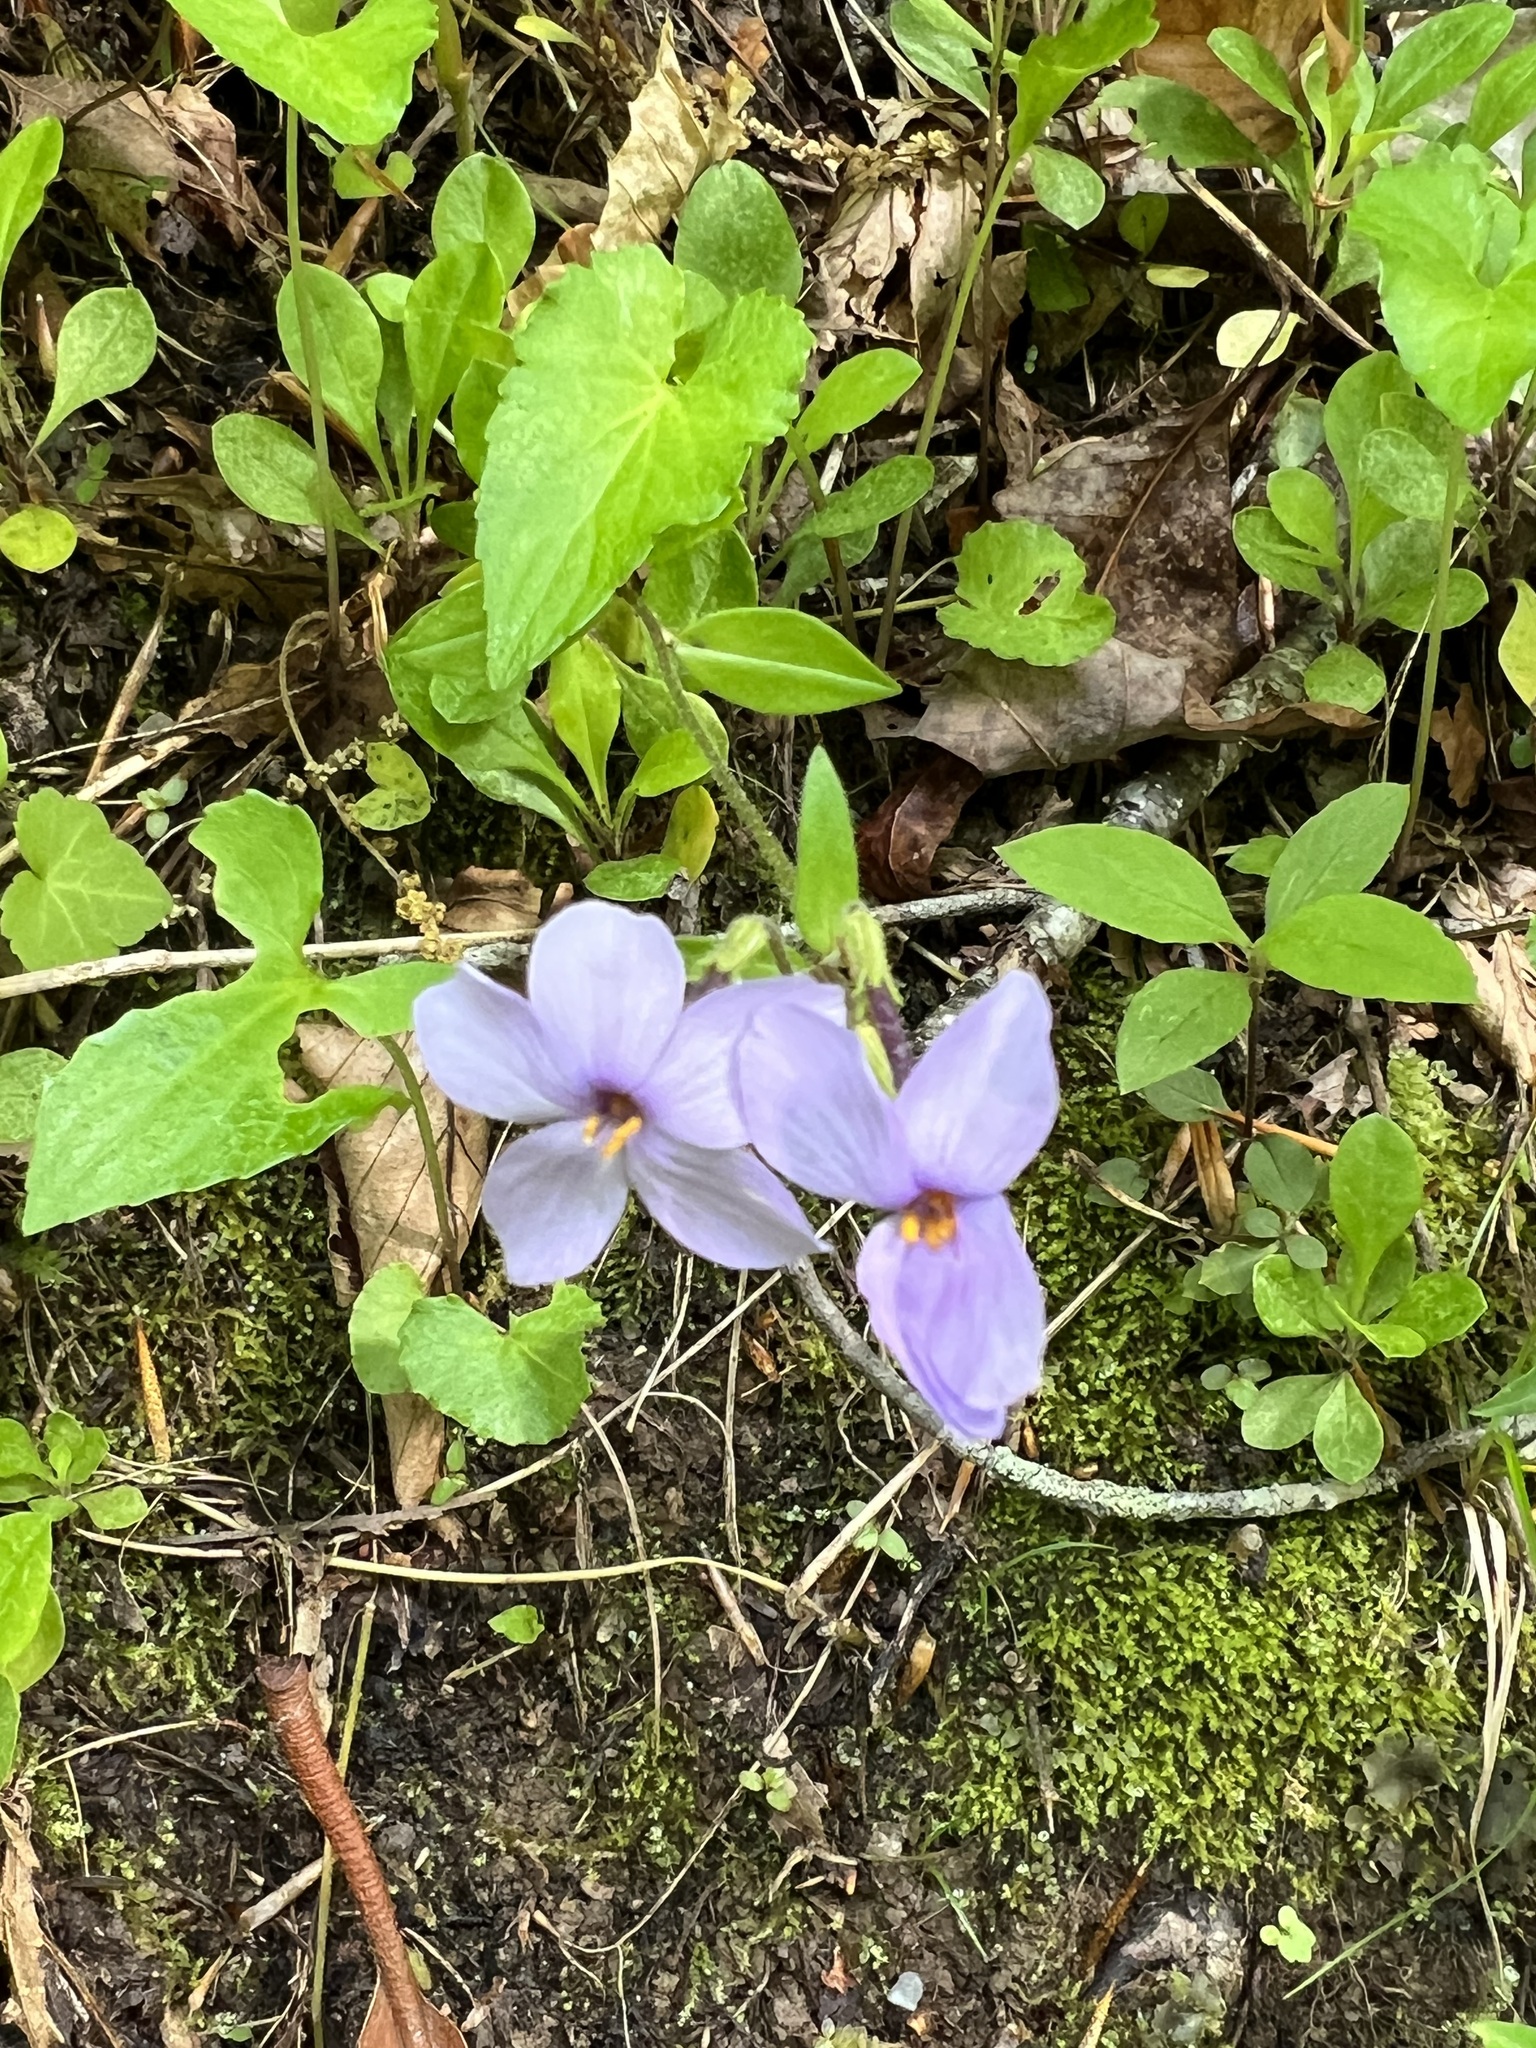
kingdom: Plantae
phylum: Tracheophyta
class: Magnoliopsida
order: Ericales
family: Polemoniaceae
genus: Phlox
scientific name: Phlox stolonifera
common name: Creeping phlox
